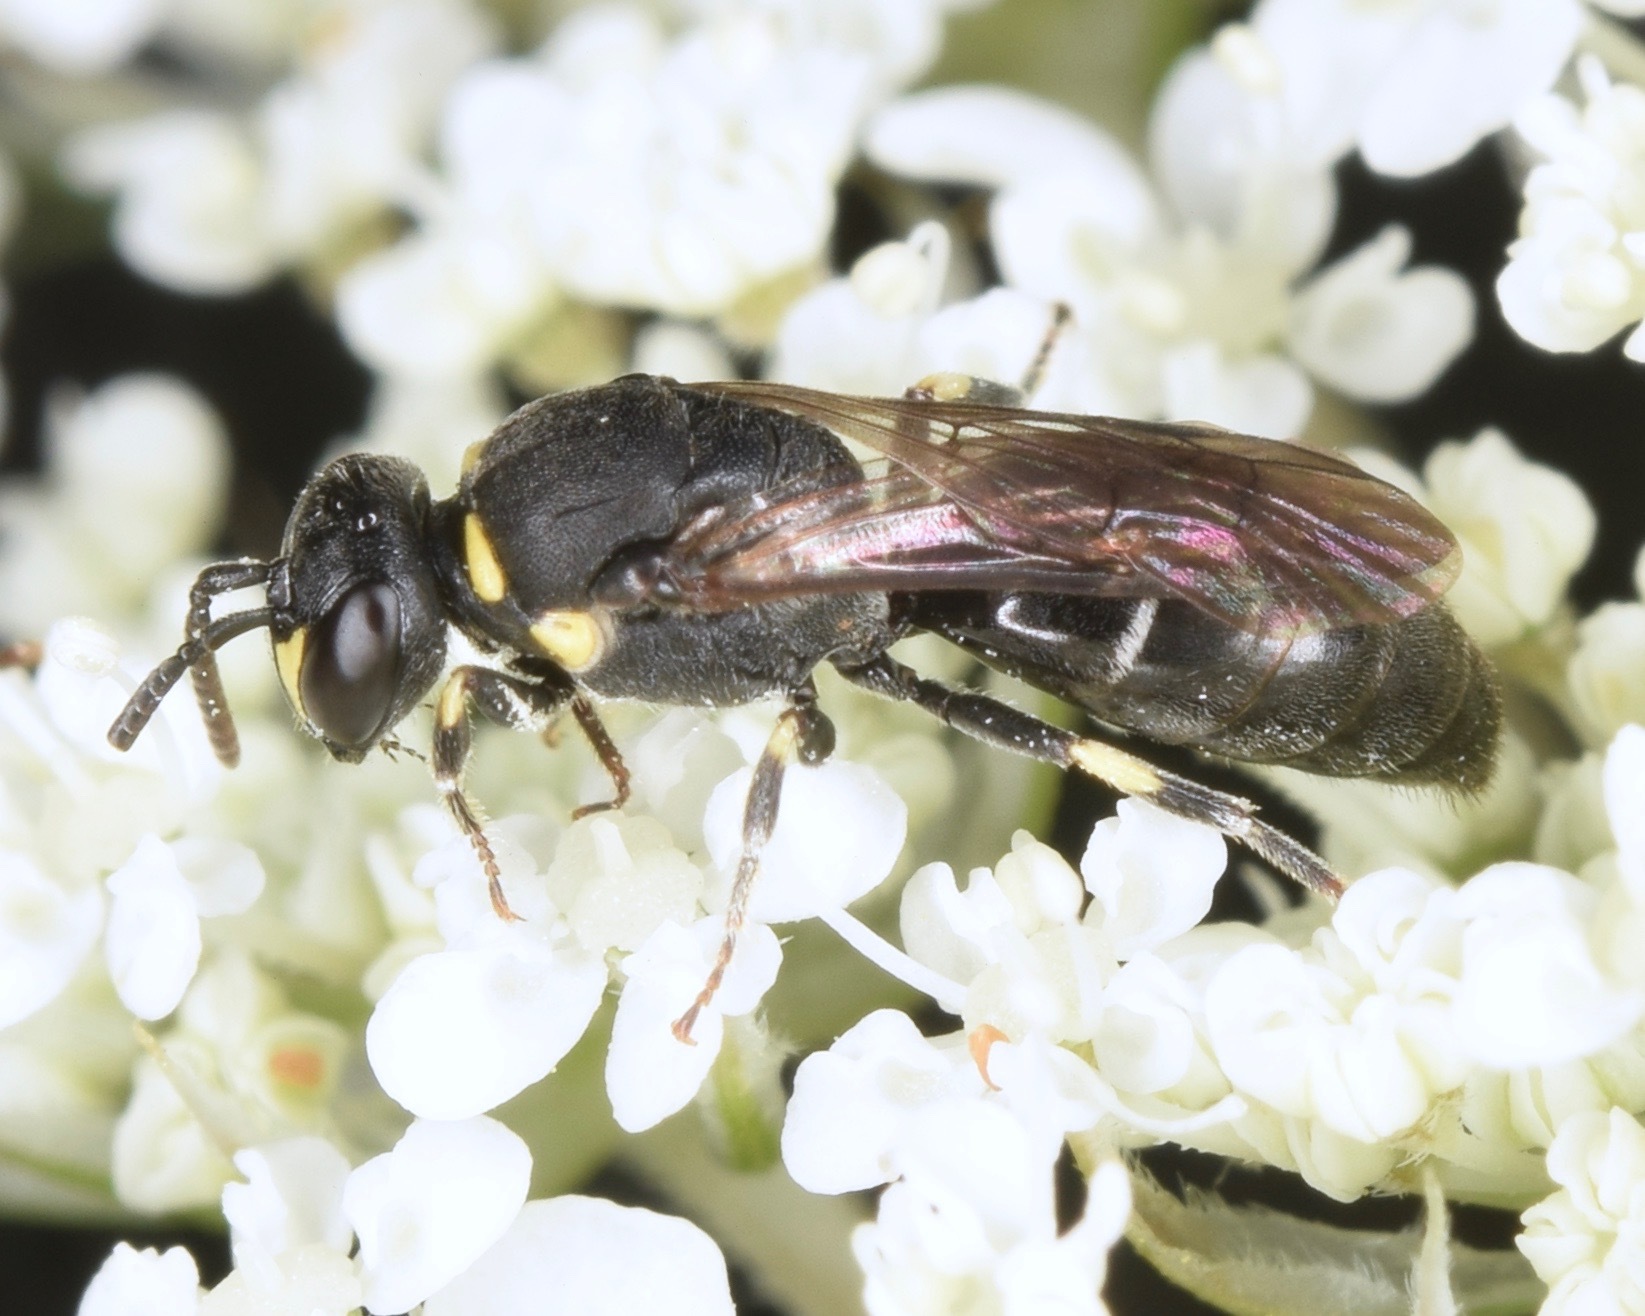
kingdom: Animalia
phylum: Arthropoda
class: Insecta
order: Hymenoptera
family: Colletidae
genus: Hylaeus
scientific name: Hylaeus modestus
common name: Yellow-faced bee
